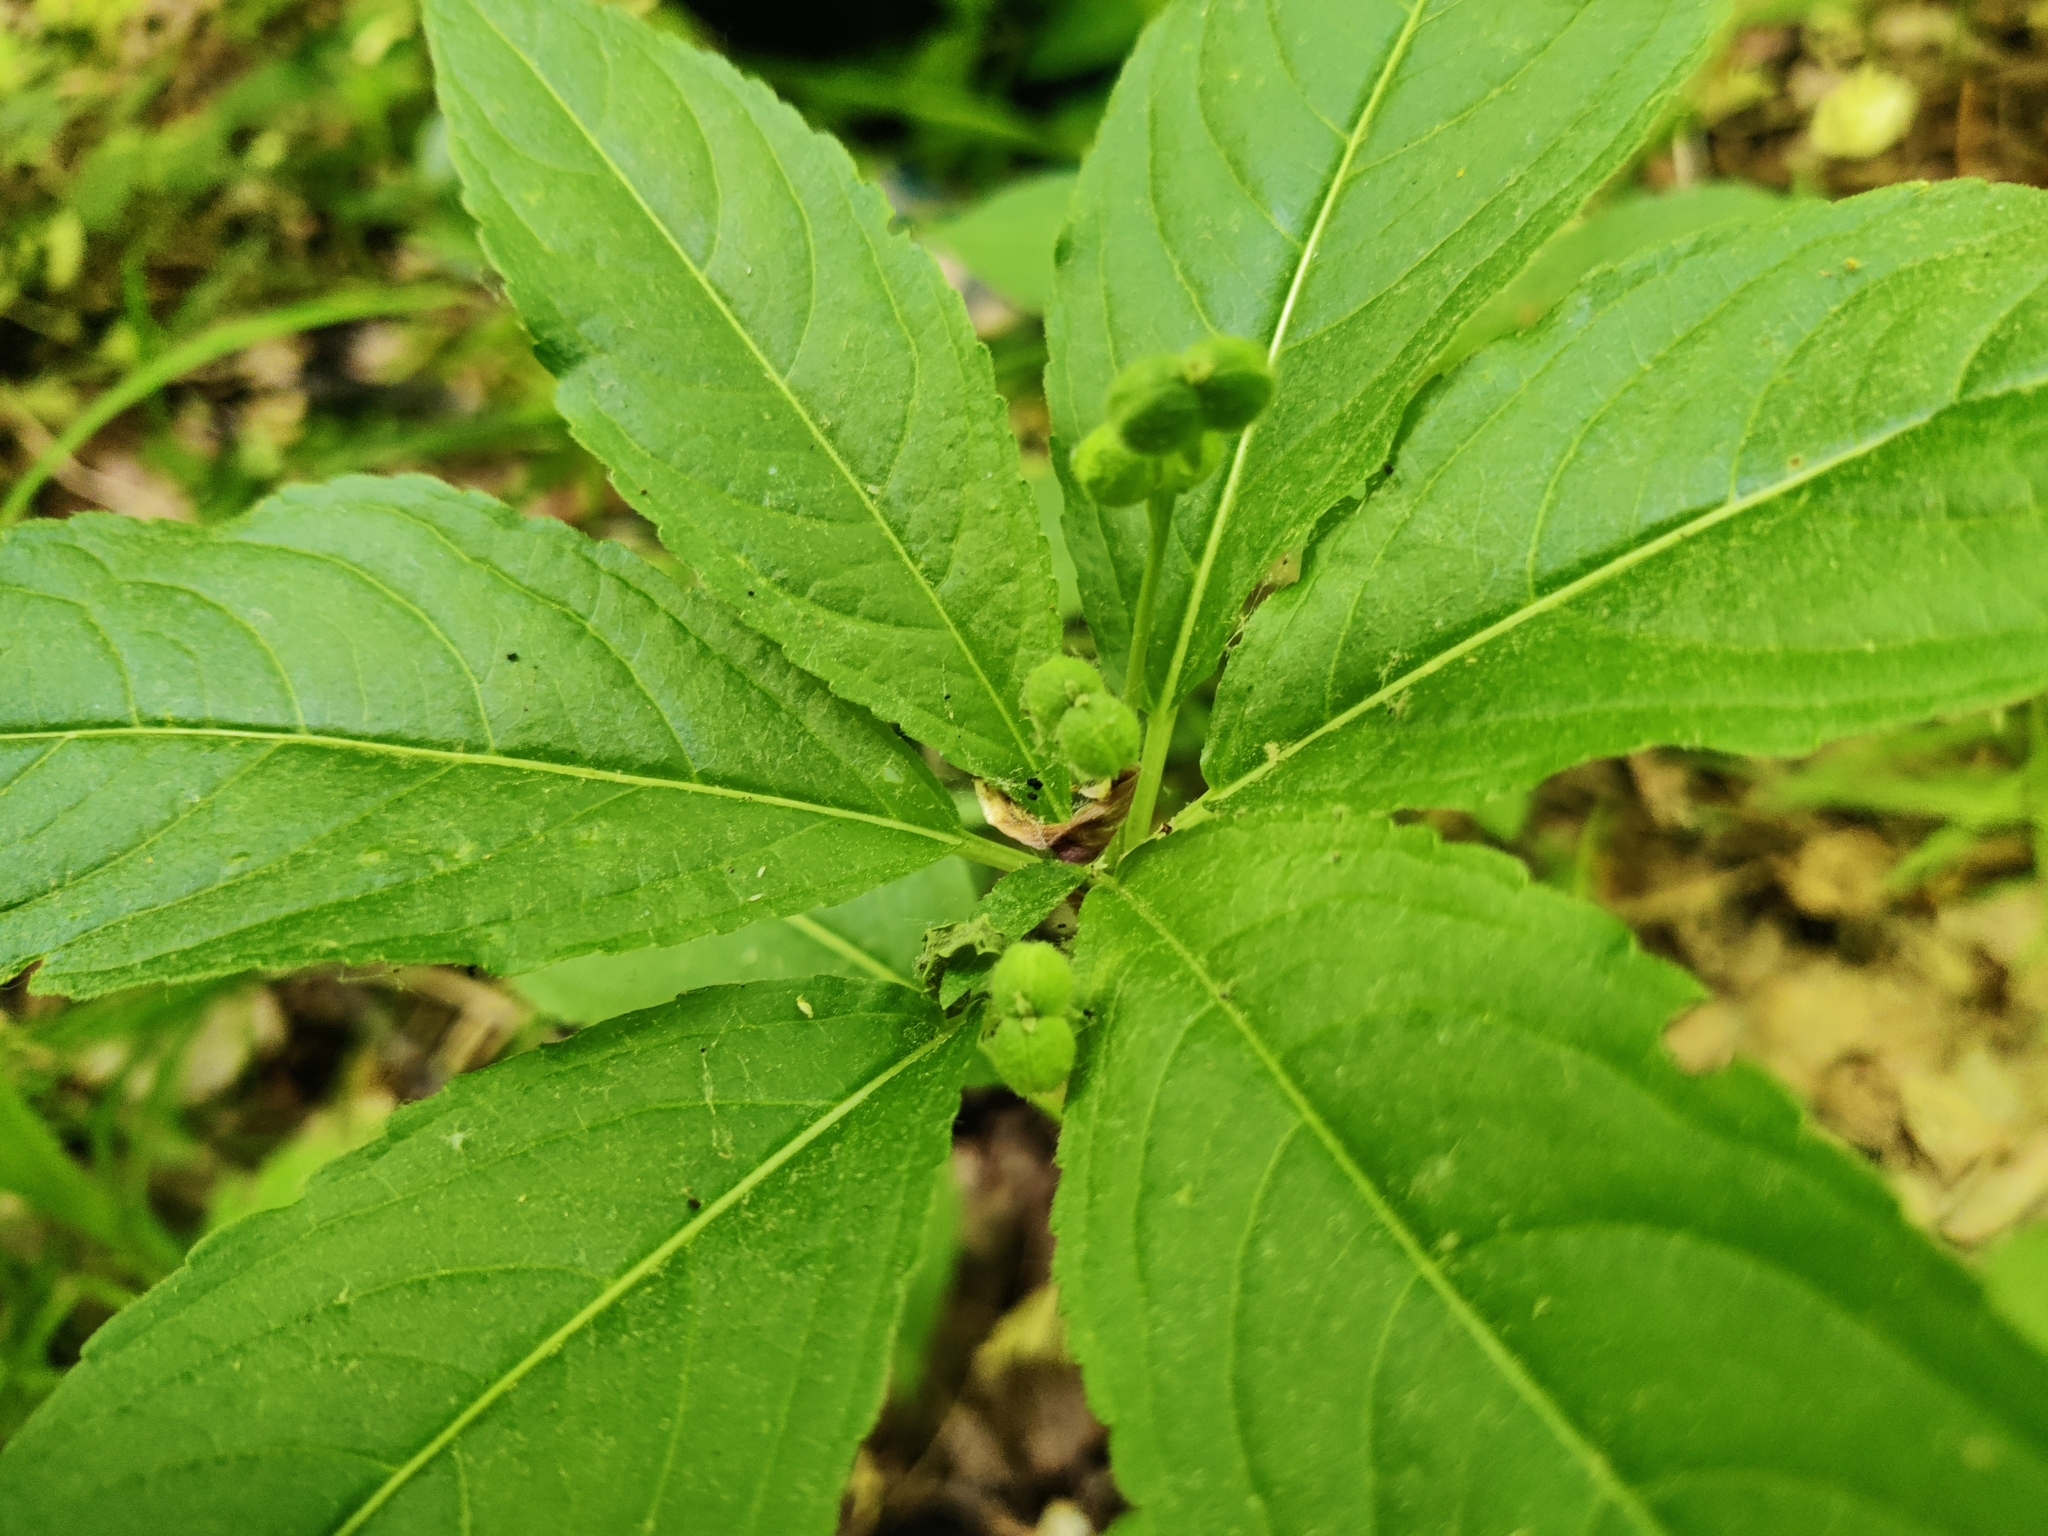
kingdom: Plantae
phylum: Tracheophyta
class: Magnoliopsida
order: Malpighiales
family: Euphorbiaceae
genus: Mercurialis
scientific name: Mercurialis perennis
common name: Dog mercury
